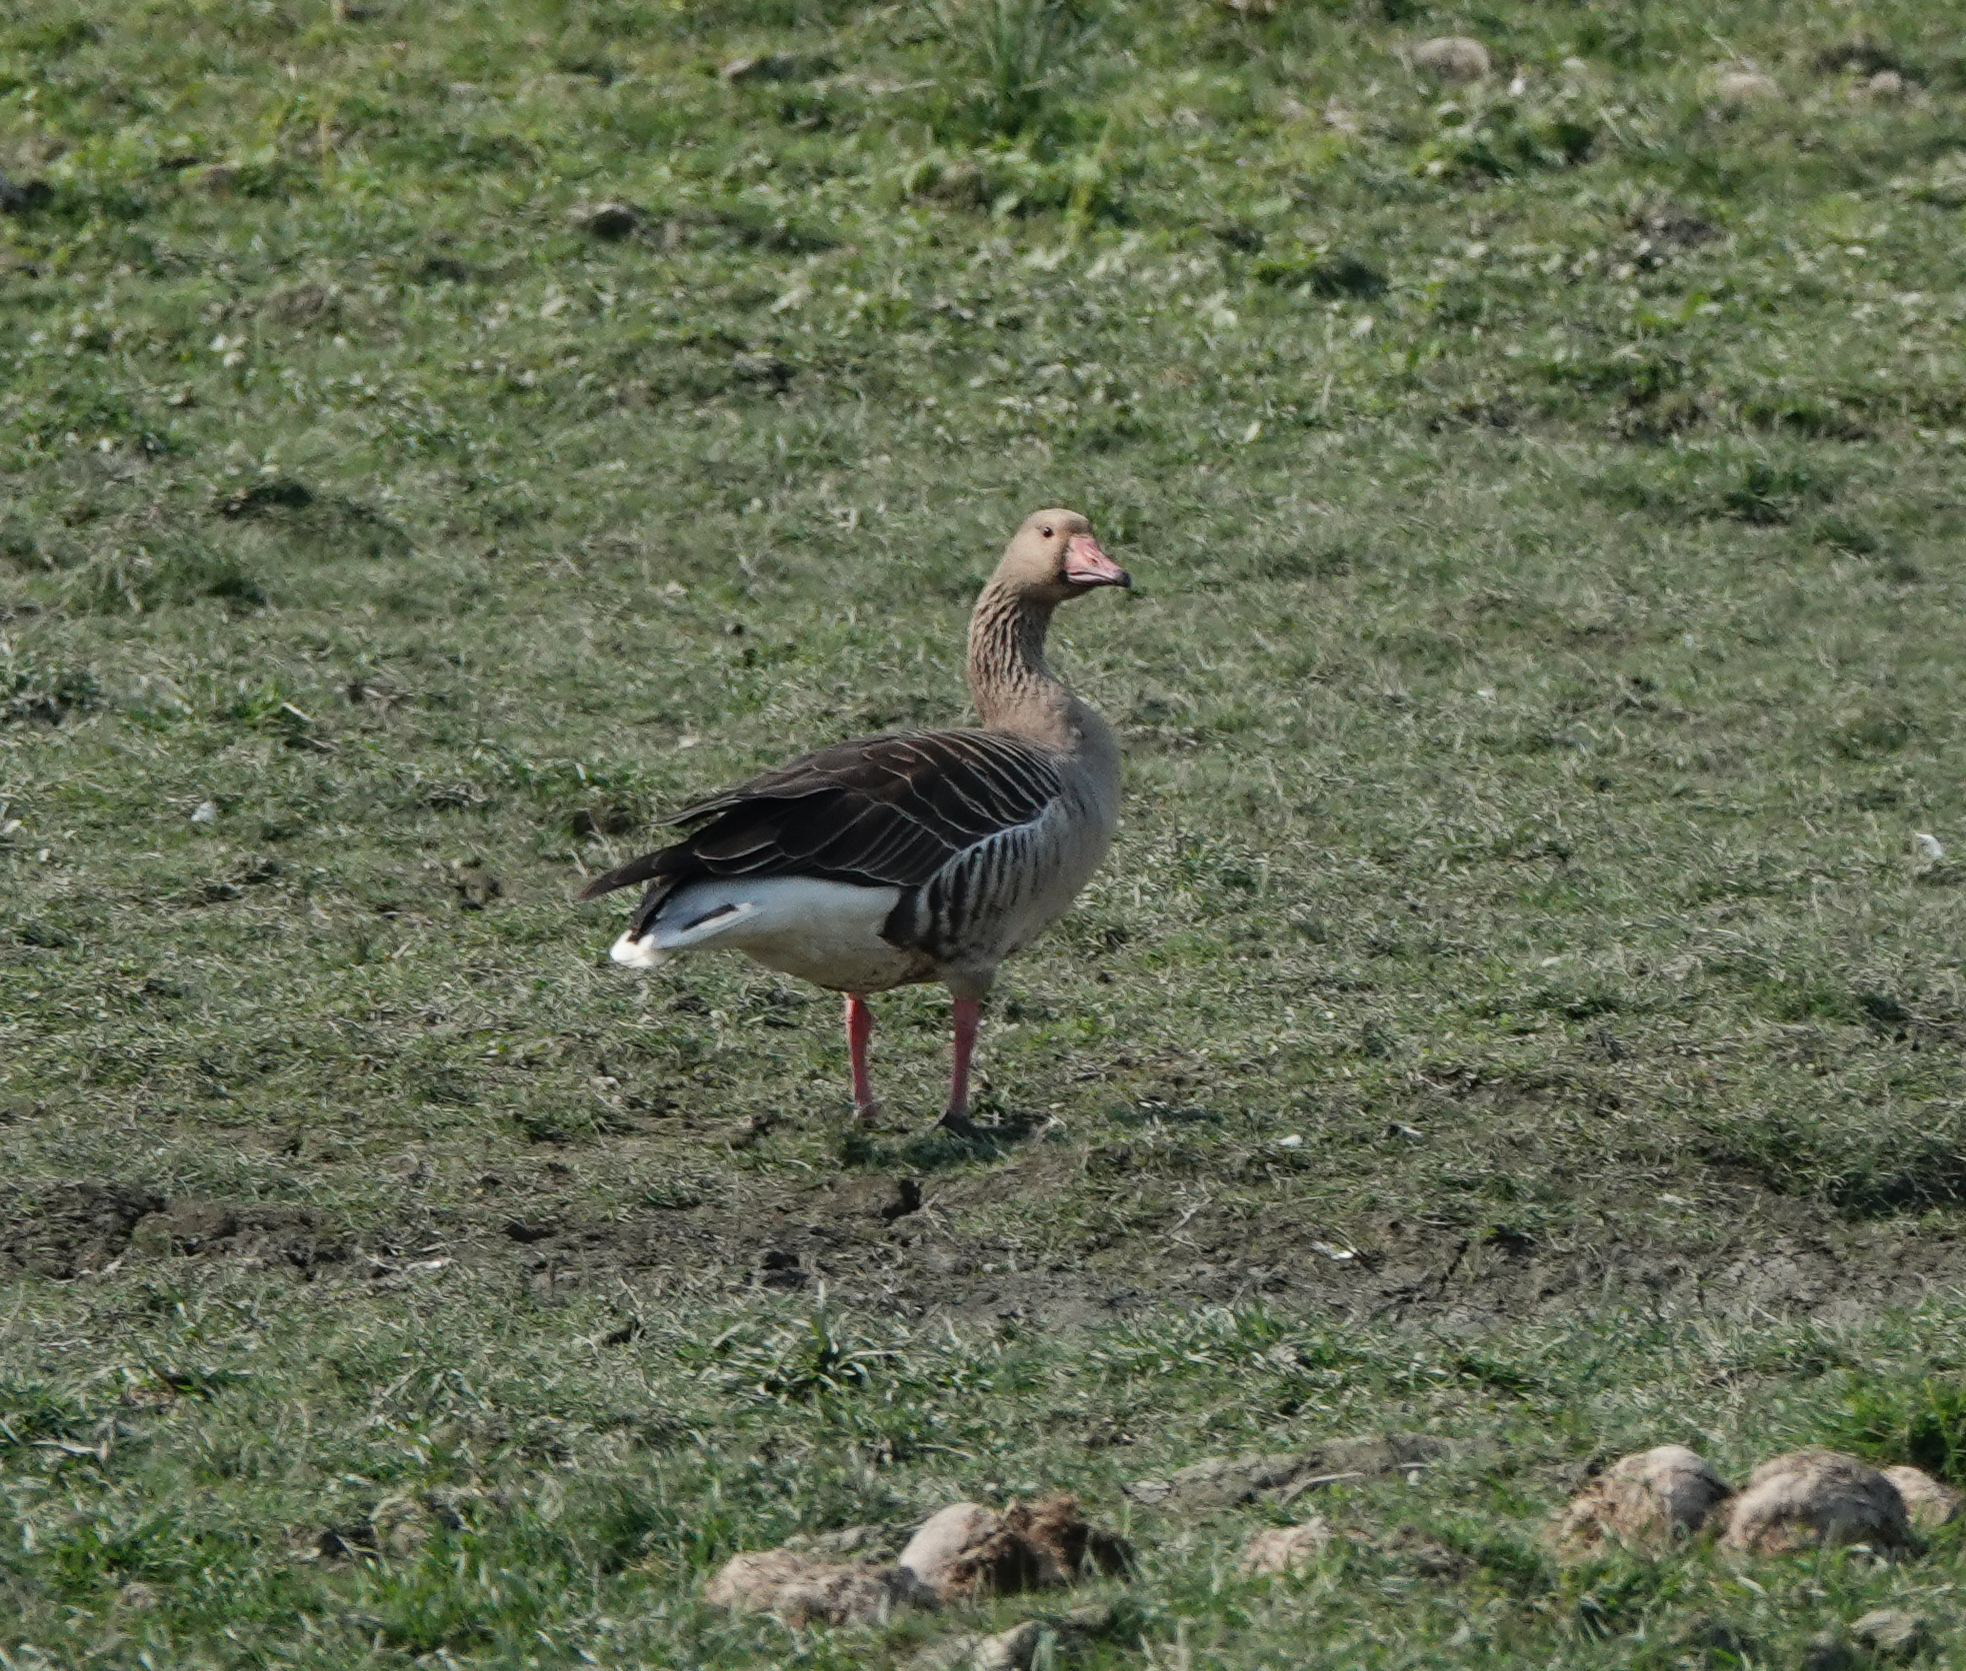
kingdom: Animalia
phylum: Chordata
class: Aves
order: Anseriformes
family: Anatidae
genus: Anser
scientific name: Anser anser
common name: Greylag goose
